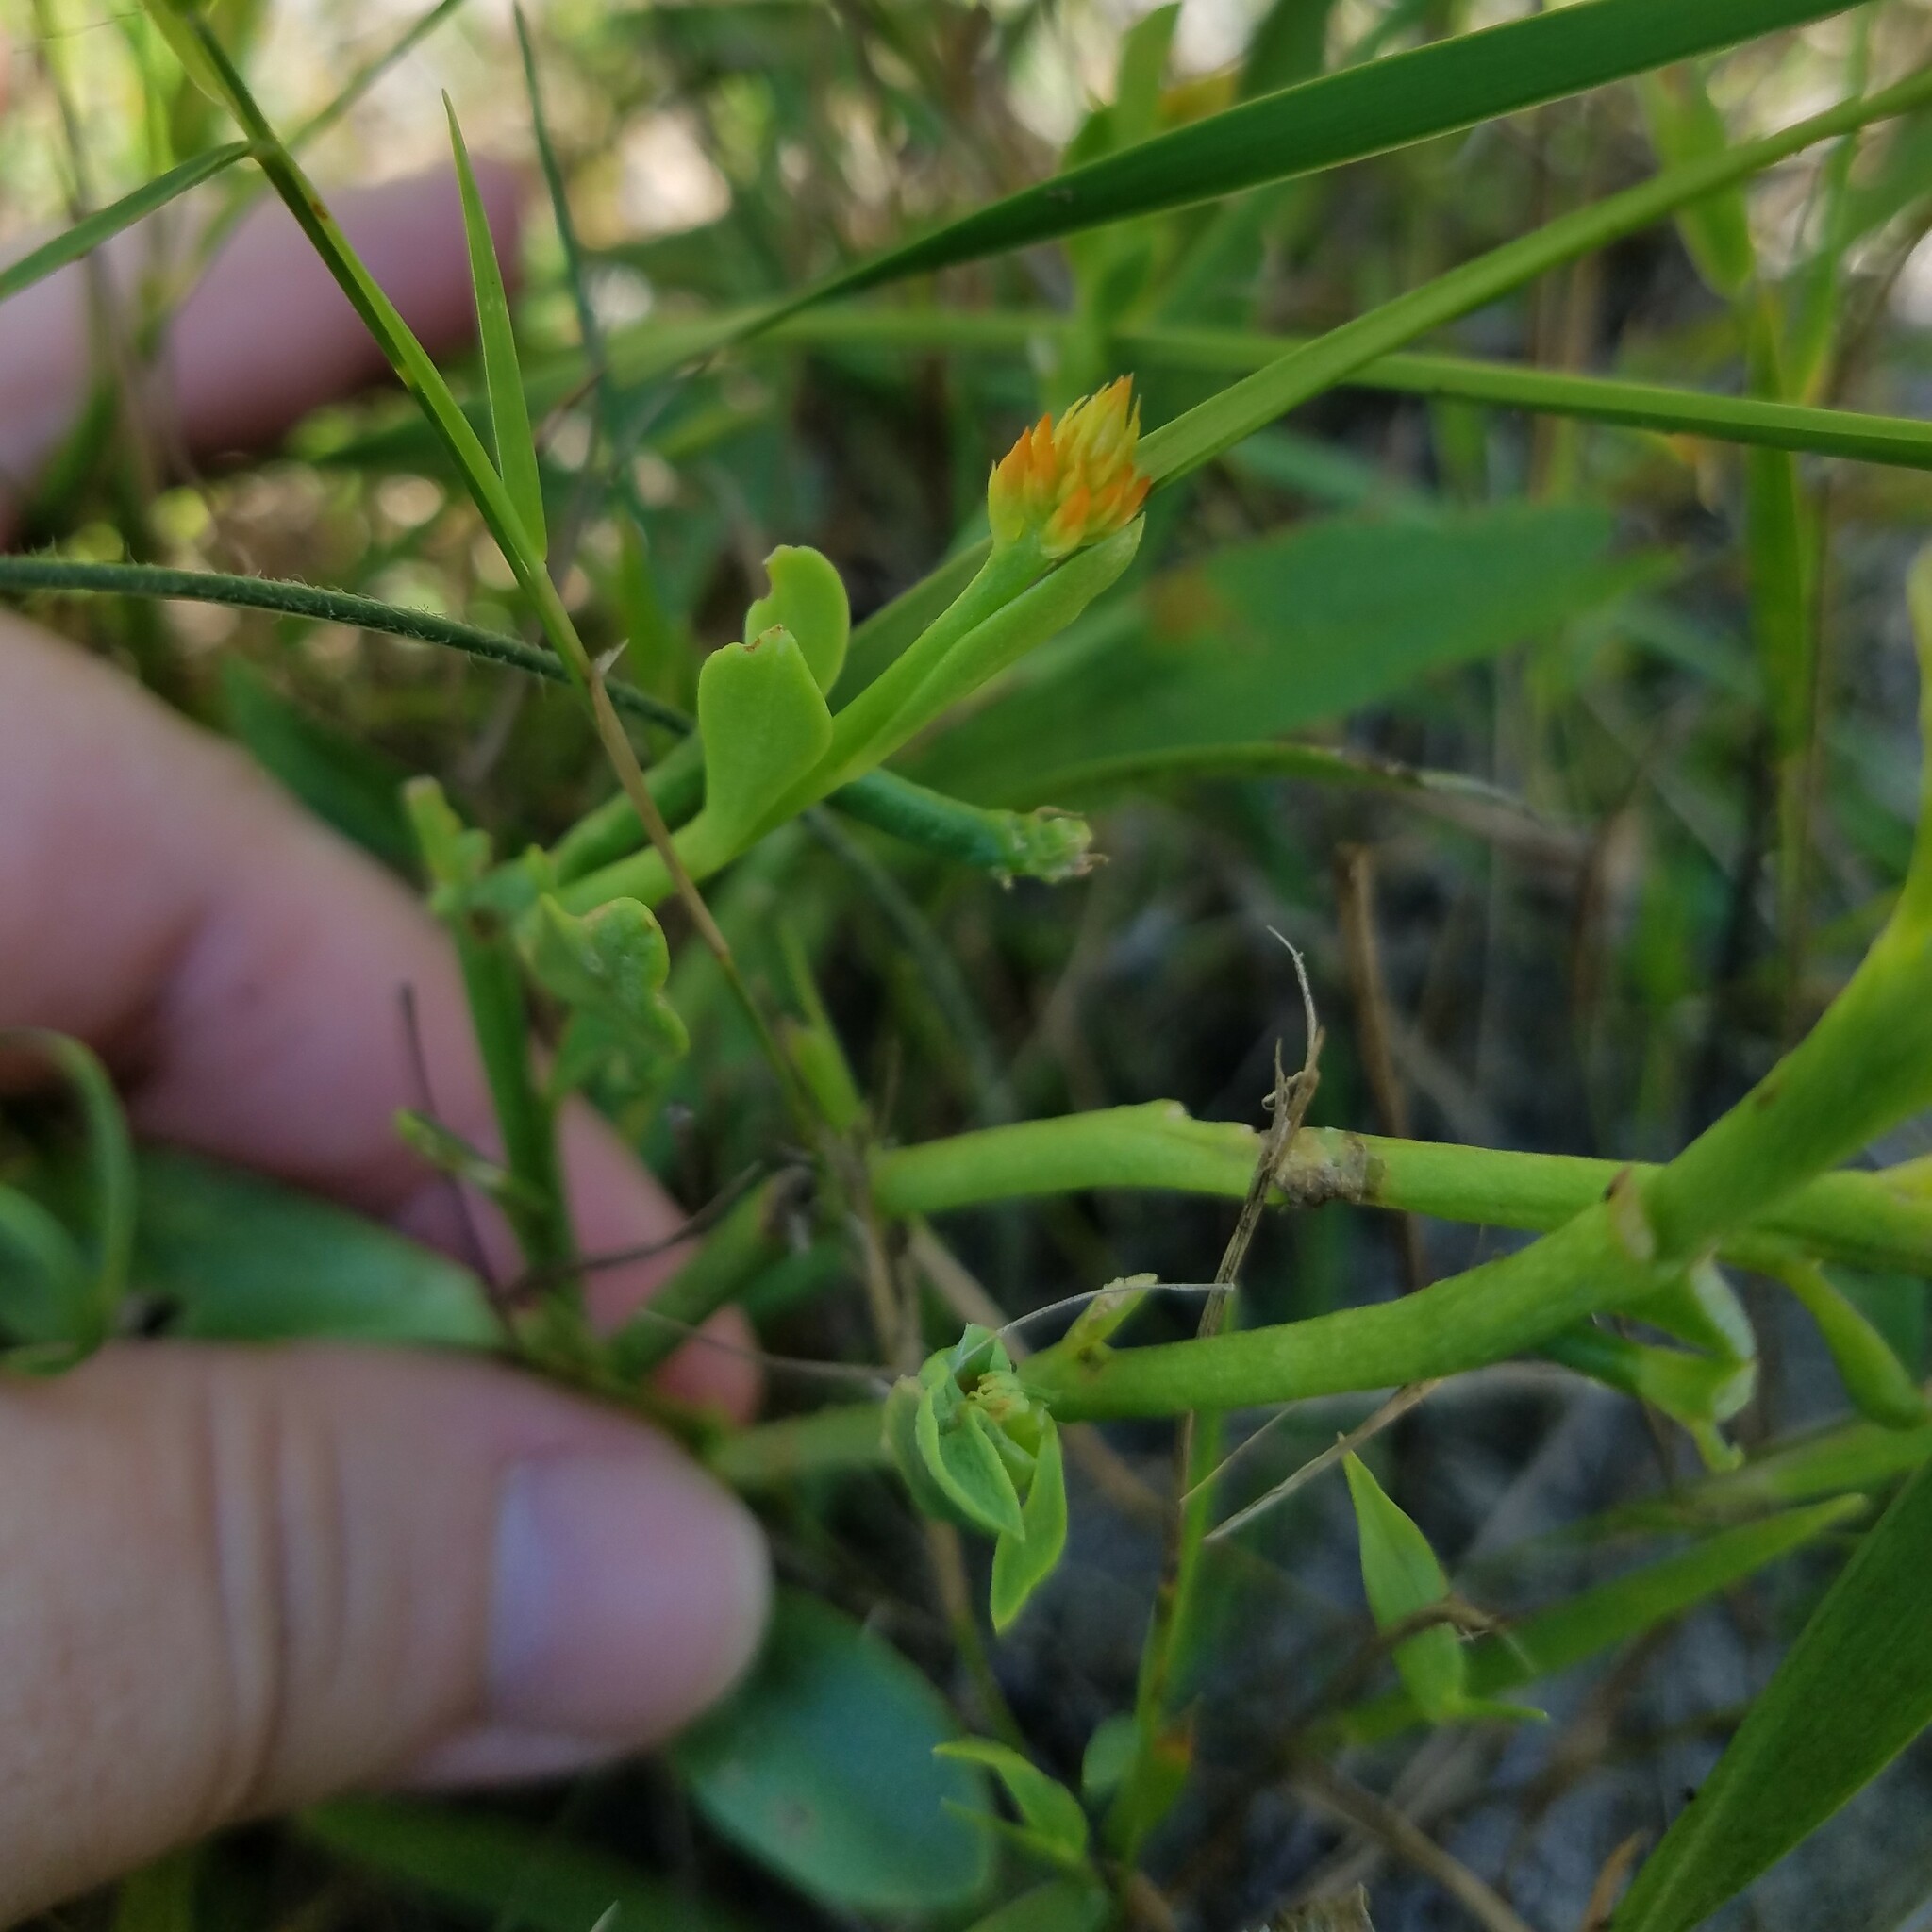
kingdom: Plantae
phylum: Tracheophyta
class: Magnoliopsida
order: Fabales
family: Polygalaceae
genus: Polygala
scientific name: Polygala lutea
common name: Orange milkwort
